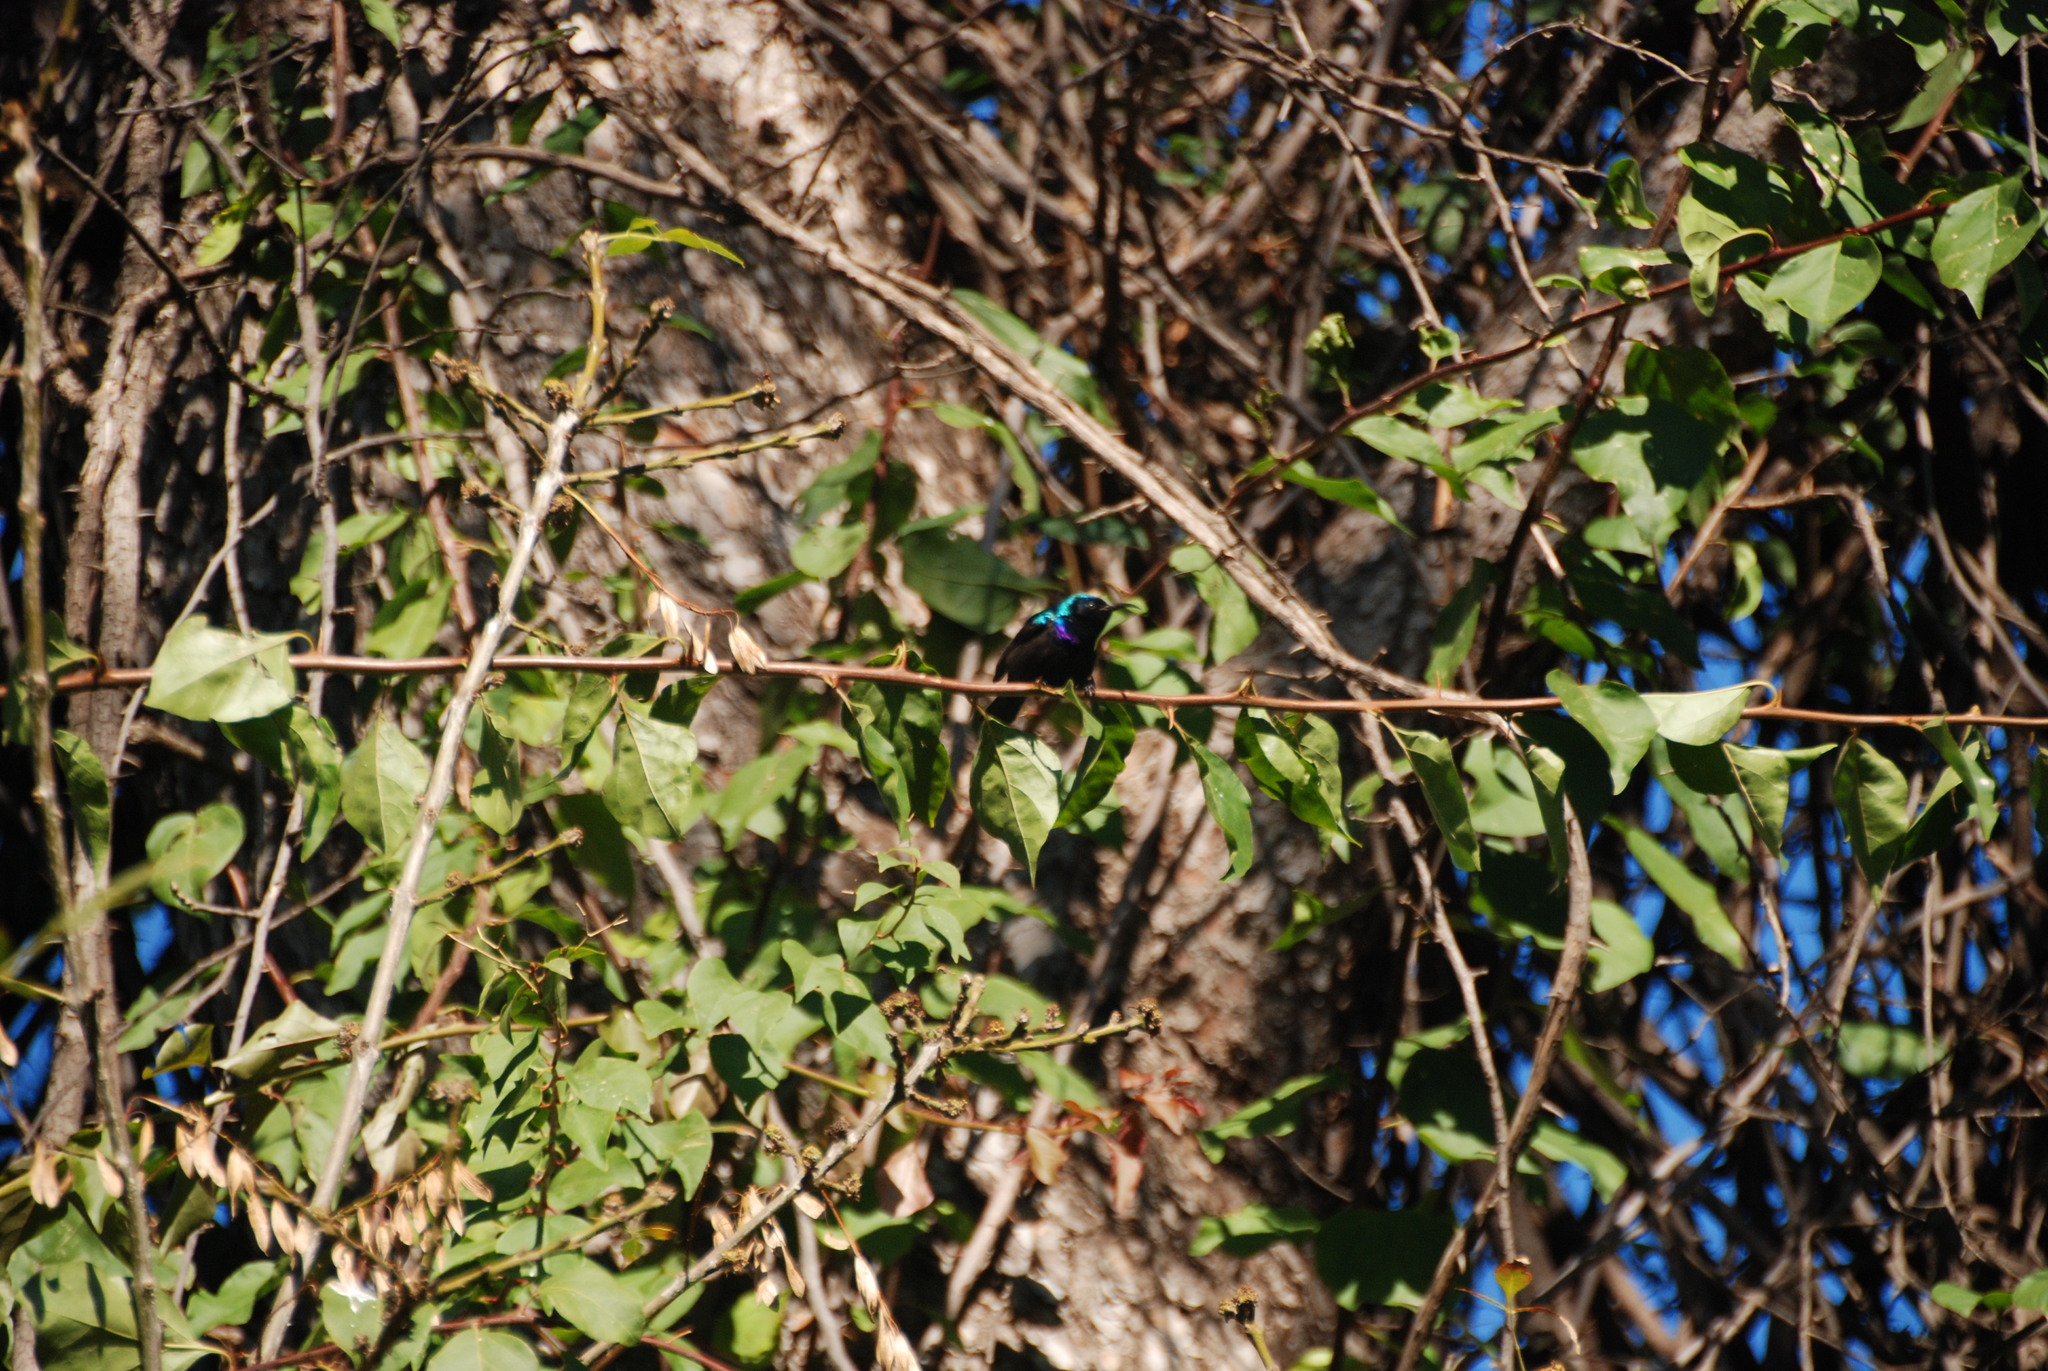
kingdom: Animalia
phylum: Chordata
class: Aves
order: Passeriformes
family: Nectariniidae
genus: Cinnyris
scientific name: Cinnyris osea
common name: Palestine sunbird
